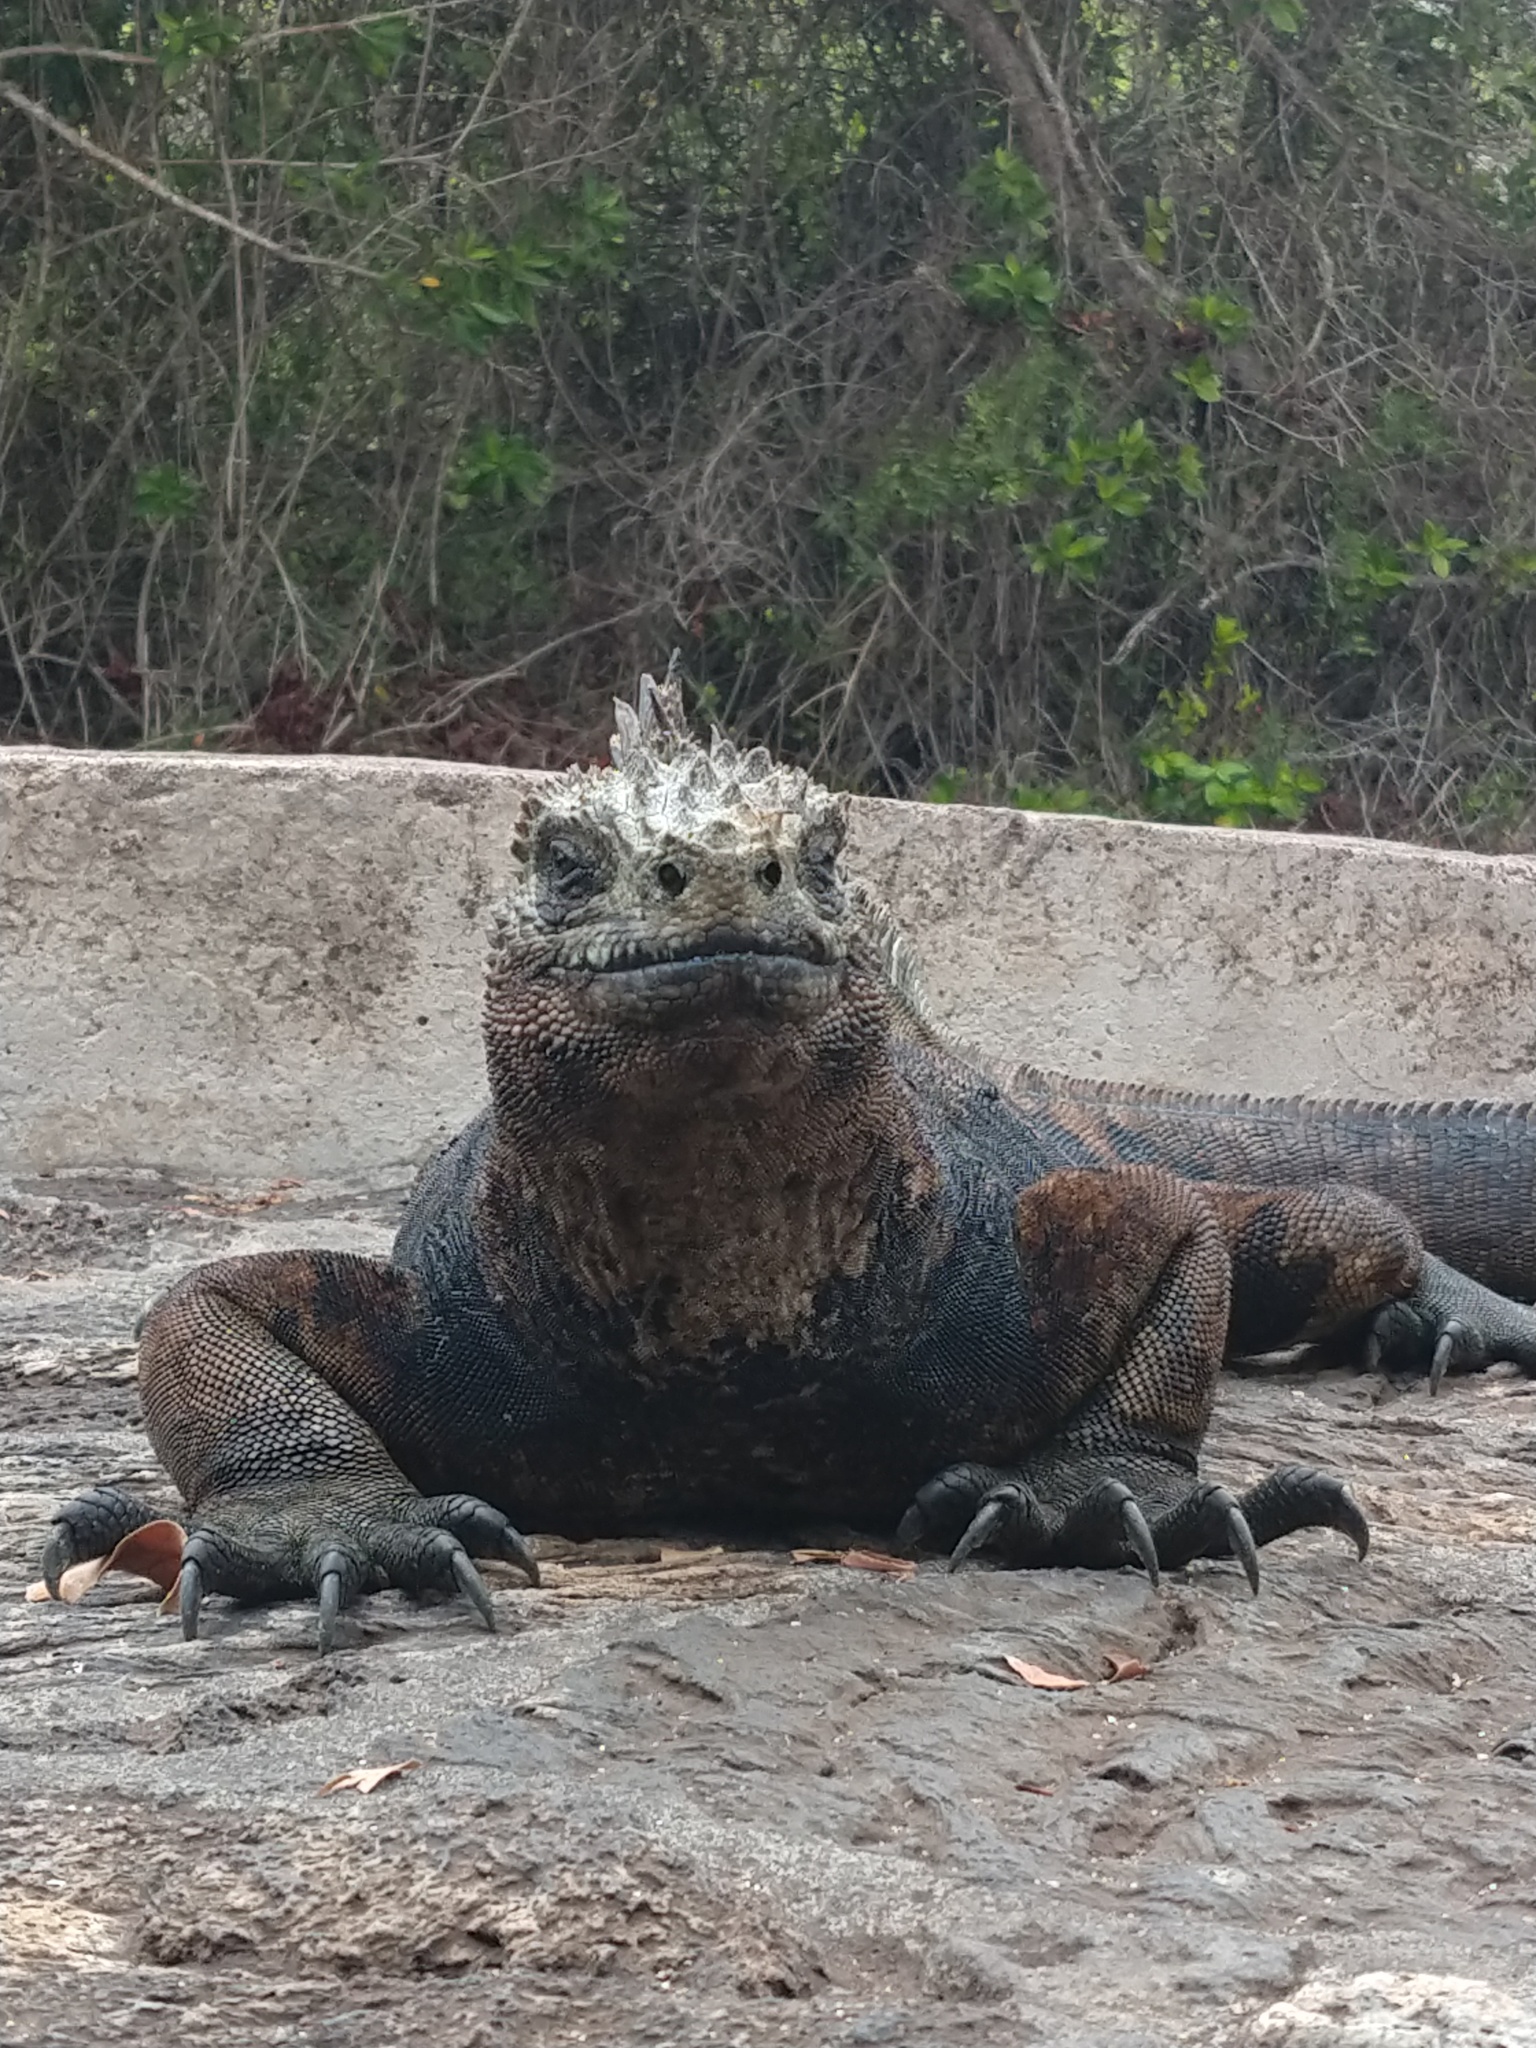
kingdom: Animalia
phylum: Chordata
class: Squamata
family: Iguanidae
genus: Amblyrhynchus
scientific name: Amblyrhynchus cristatus
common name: Marine iguana
